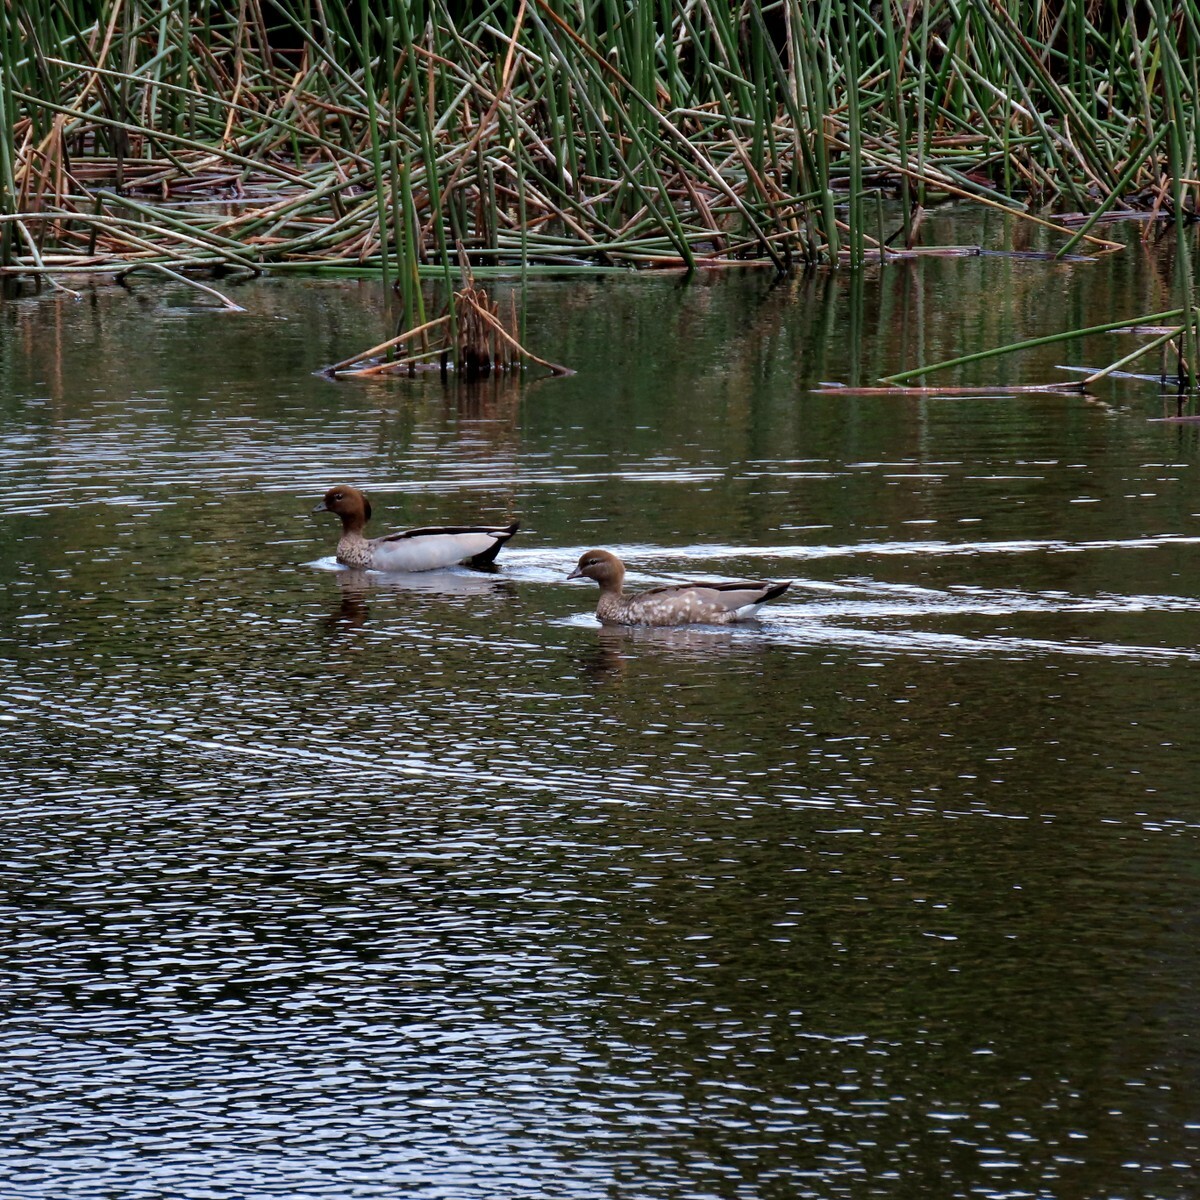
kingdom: Animalia
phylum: Chordata
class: Aves
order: Anseriformes
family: Anatidae
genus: Chenonetta
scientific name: Chenonetta jubata
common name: Maned duck
